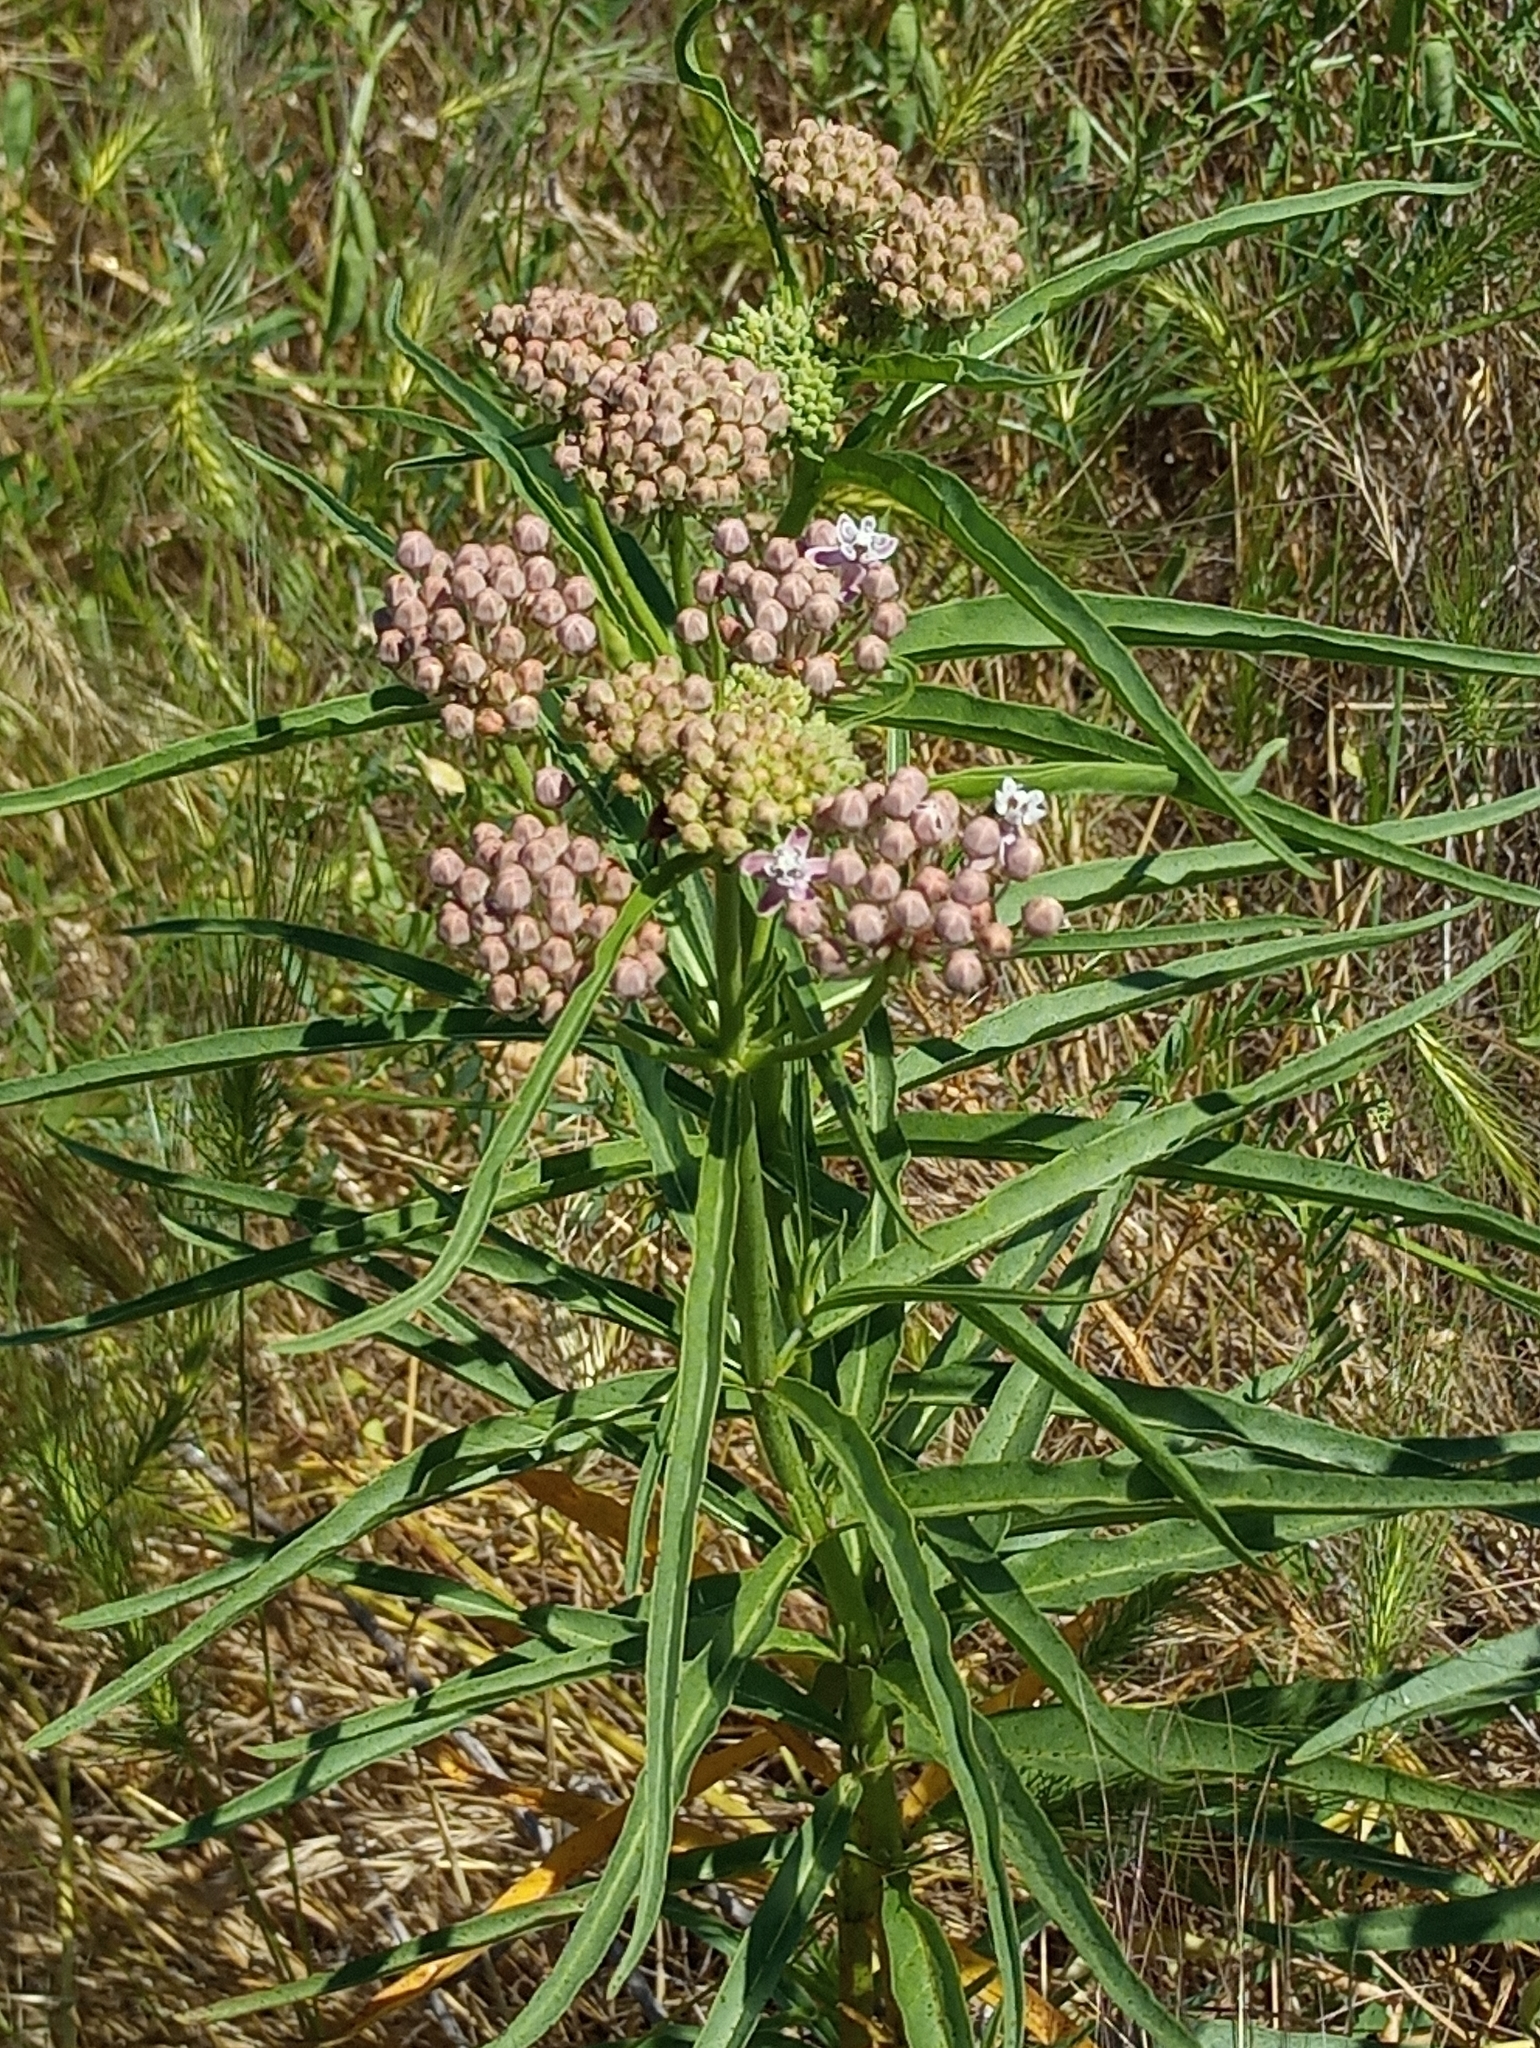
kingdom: Plantae
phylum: Tracheophyta
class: Magnoliopsida
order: Gentianales
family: Apocynaceae
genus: Asclepias
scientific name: Asclepias fascicularis
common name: Mexican milkweed
